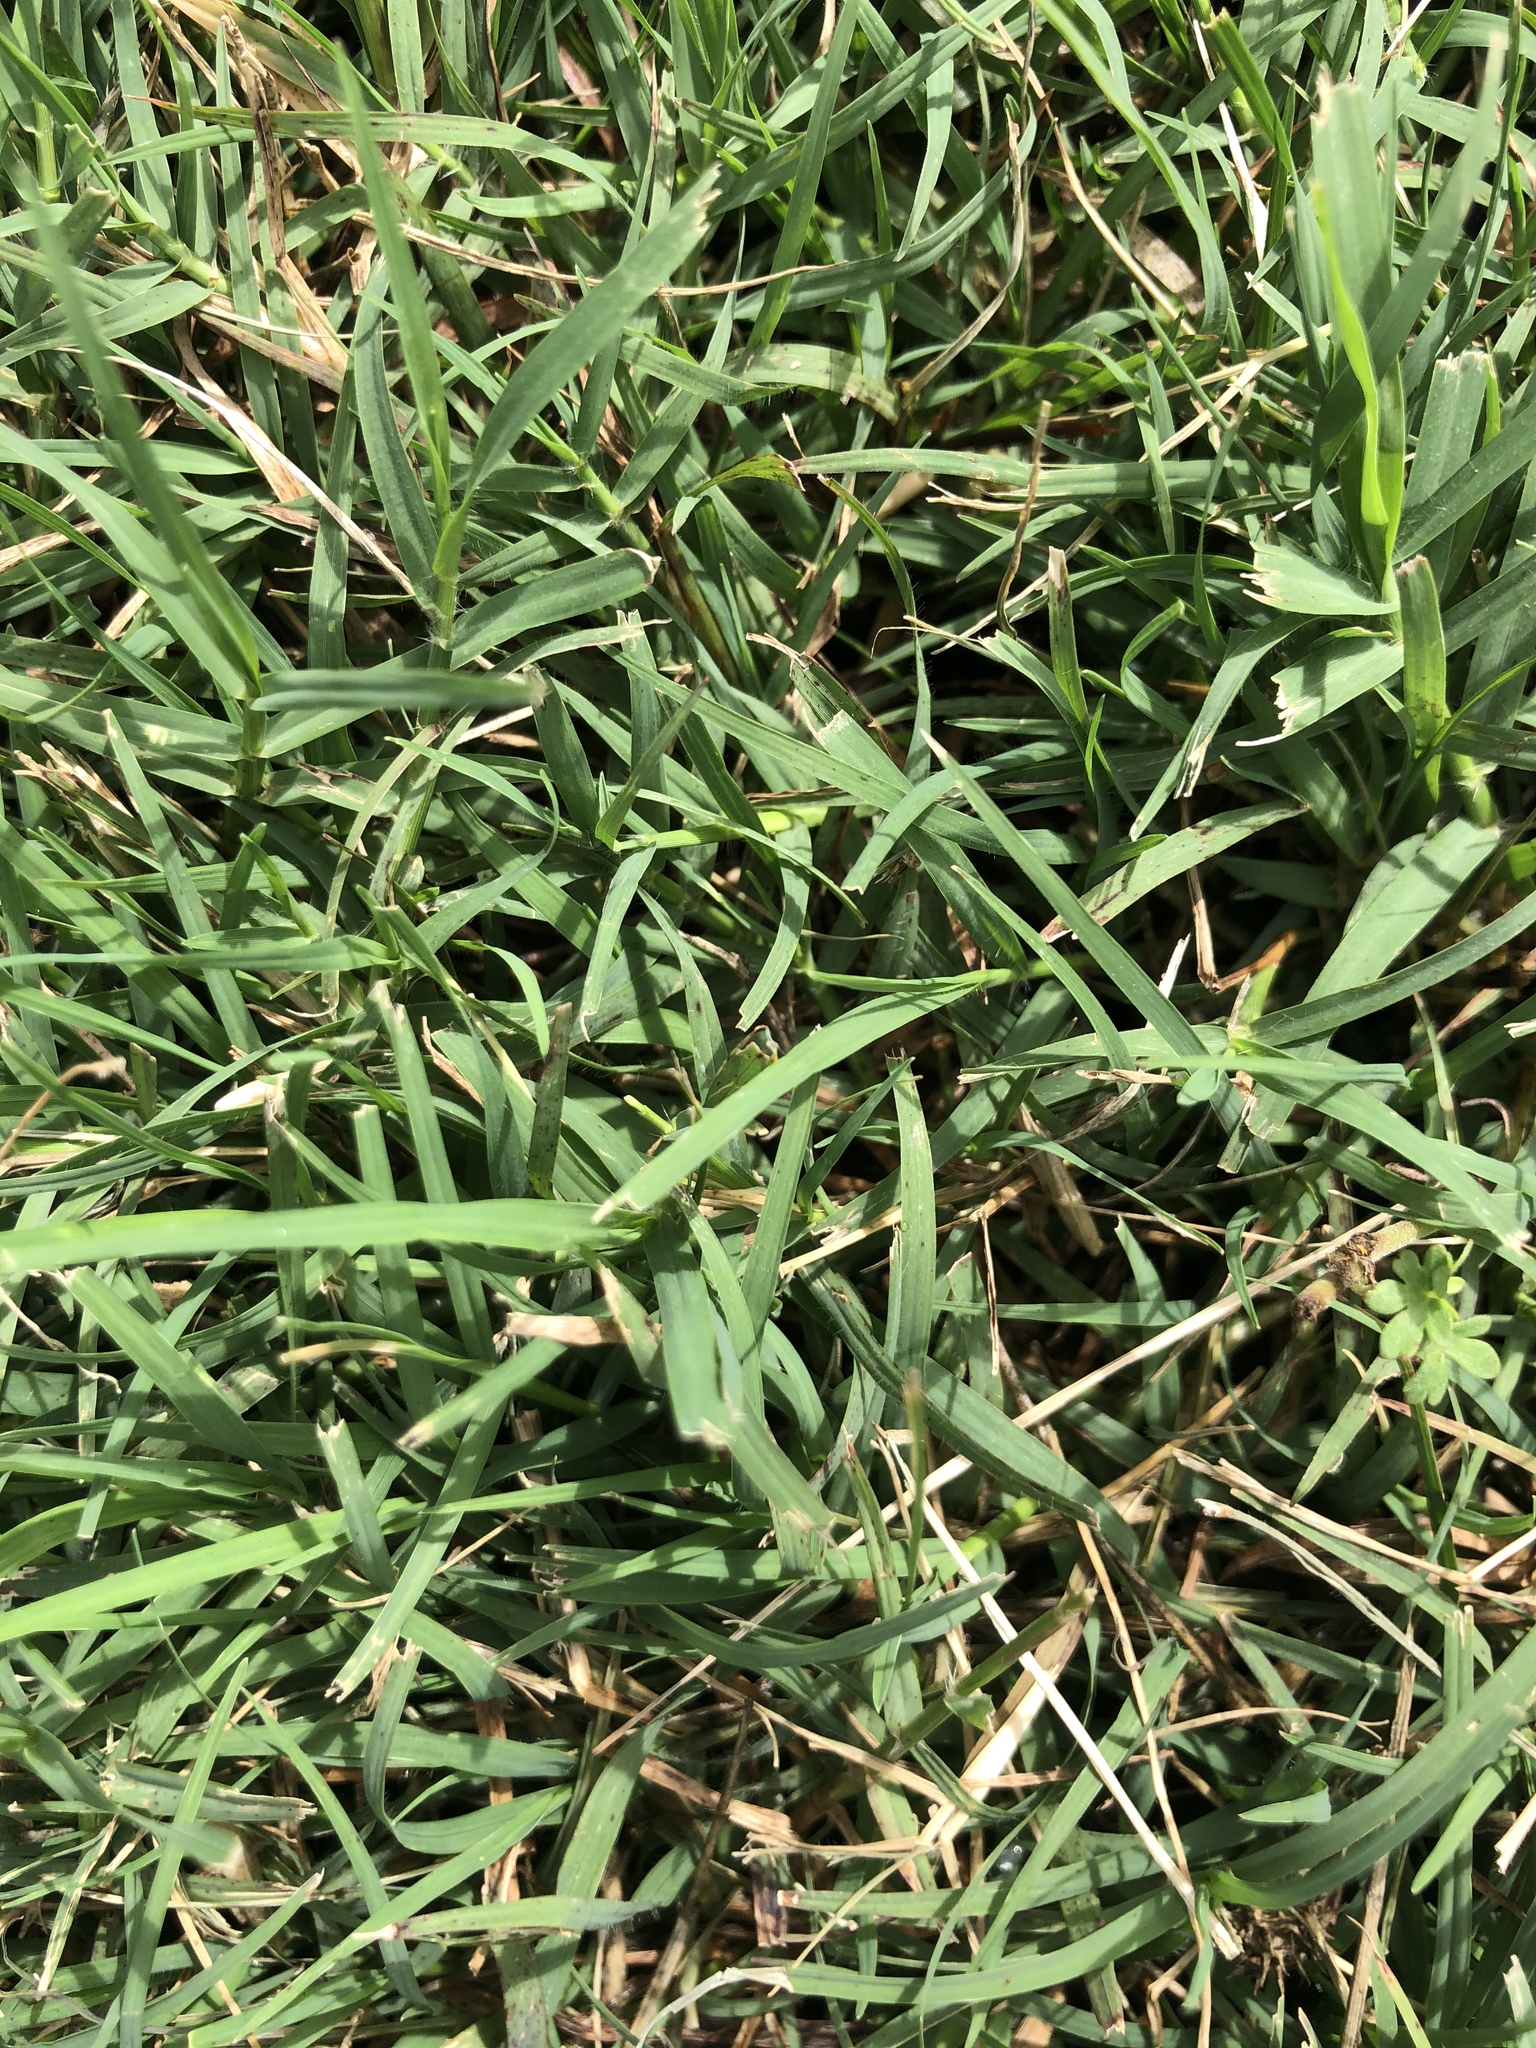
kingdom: Plantae
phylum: Tracheophyta
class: Liliopsida
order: Poales
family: Poaceae
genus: Cynodon
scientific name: Cynodon dactylon
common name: Bermuda grass
